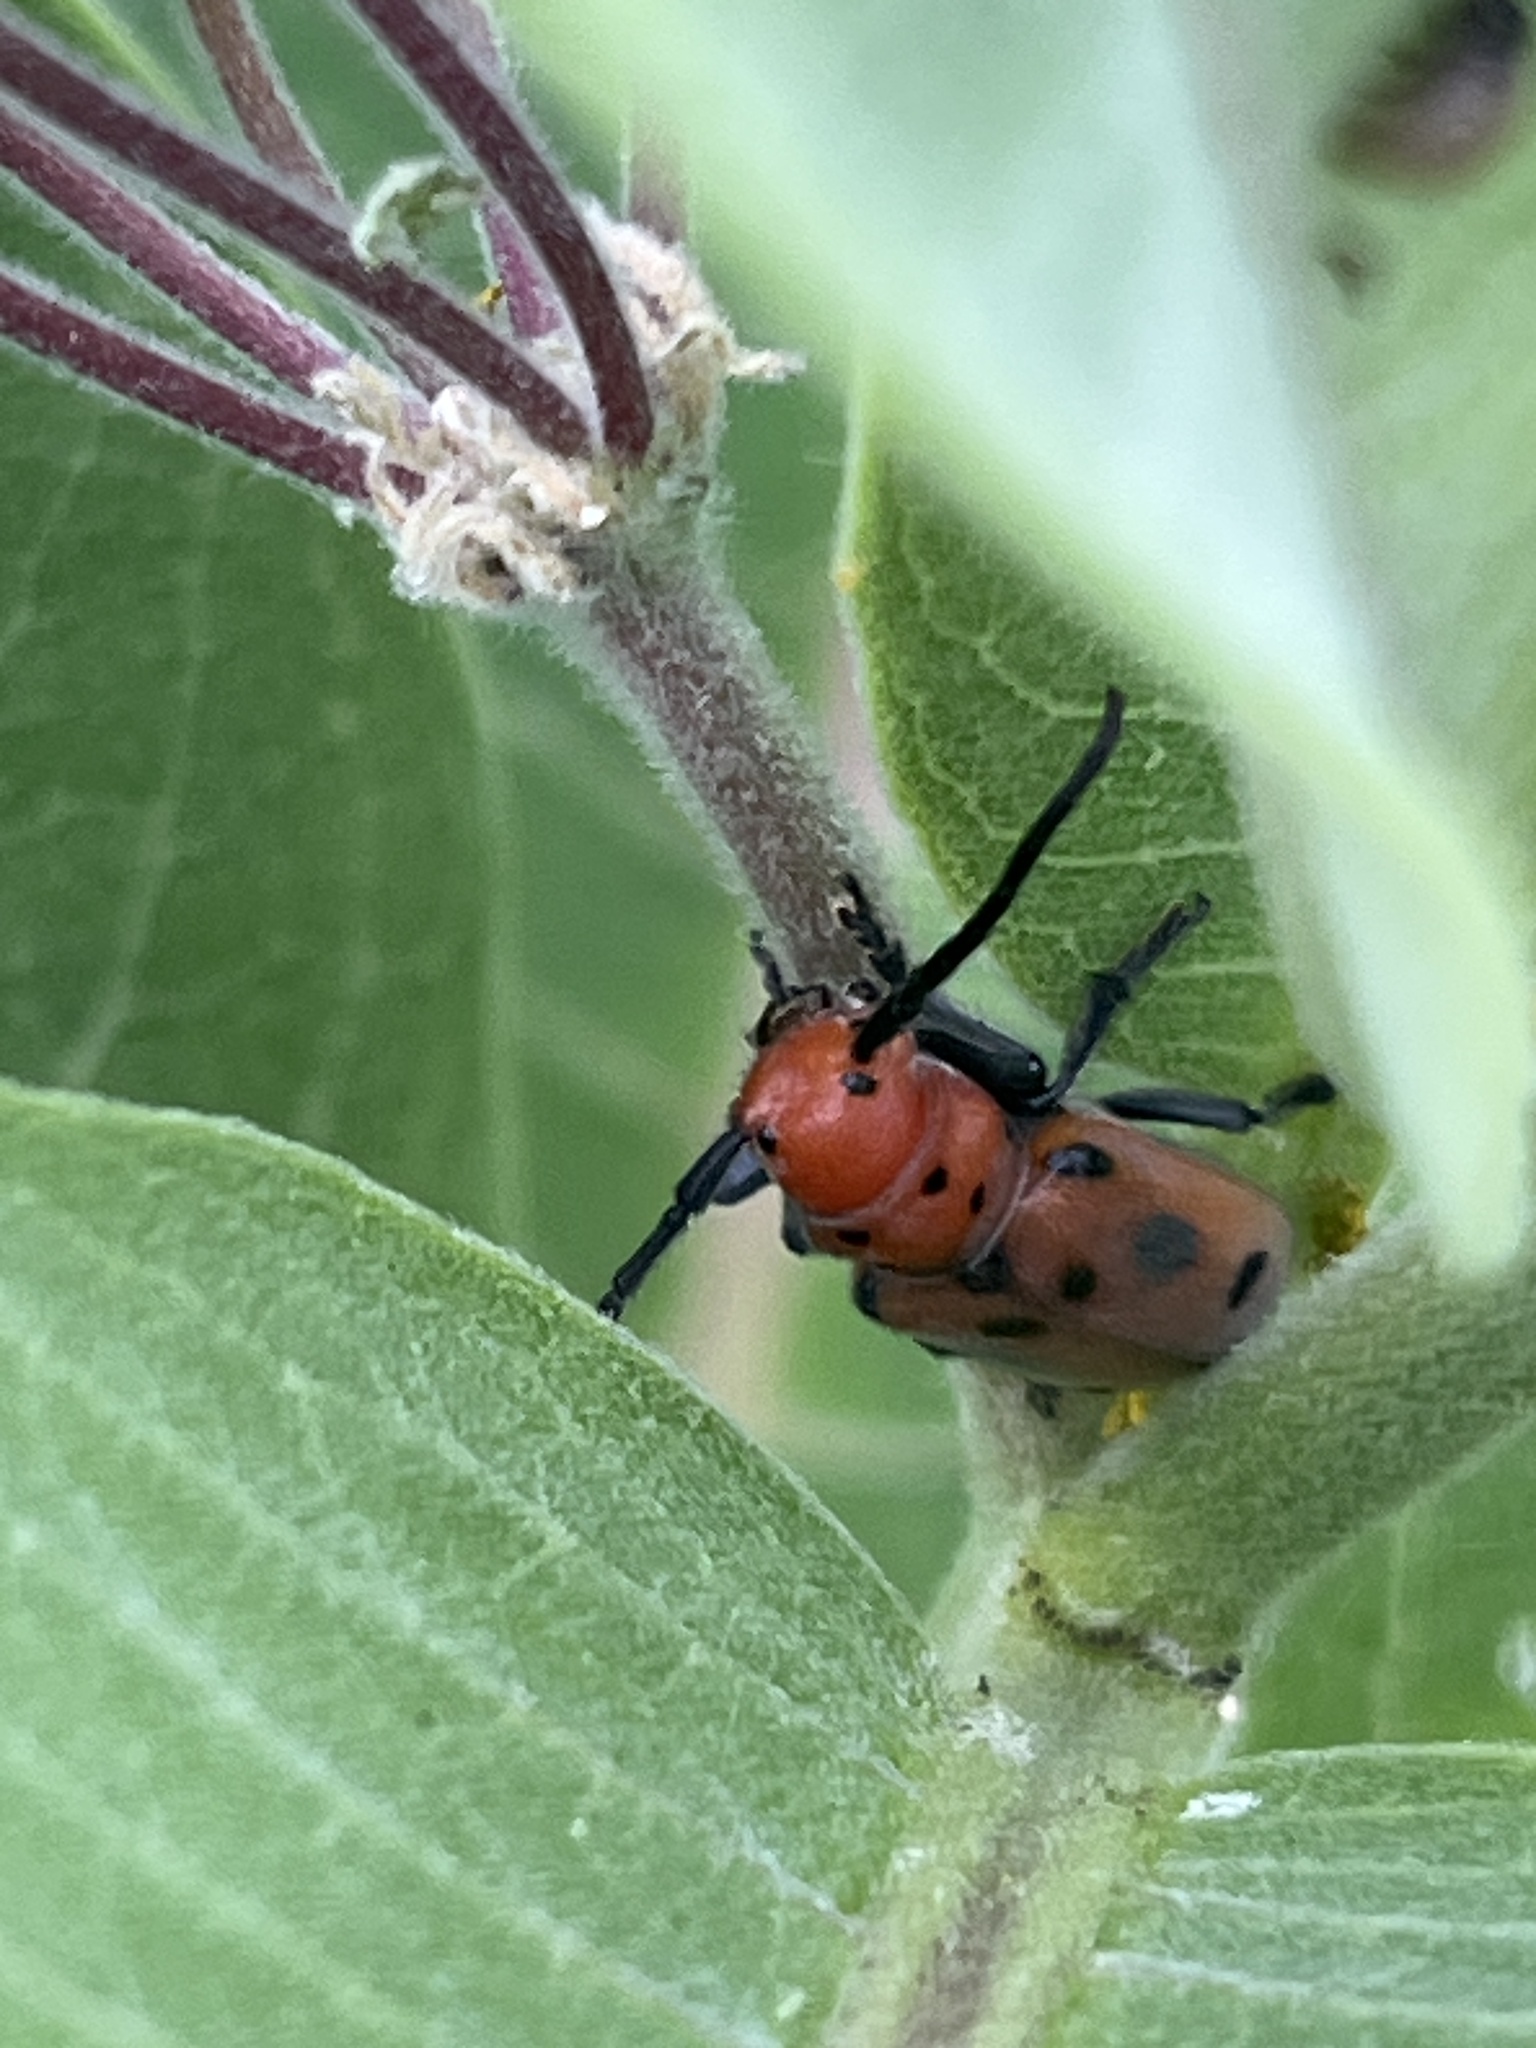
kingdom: Animalia
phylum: Arthropoda
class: Insecta
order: Coleoptera
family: Cerambycidae
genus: Tetraopes
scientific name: Tetraopes tetrophthalmus
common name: Red milkweed beetle
